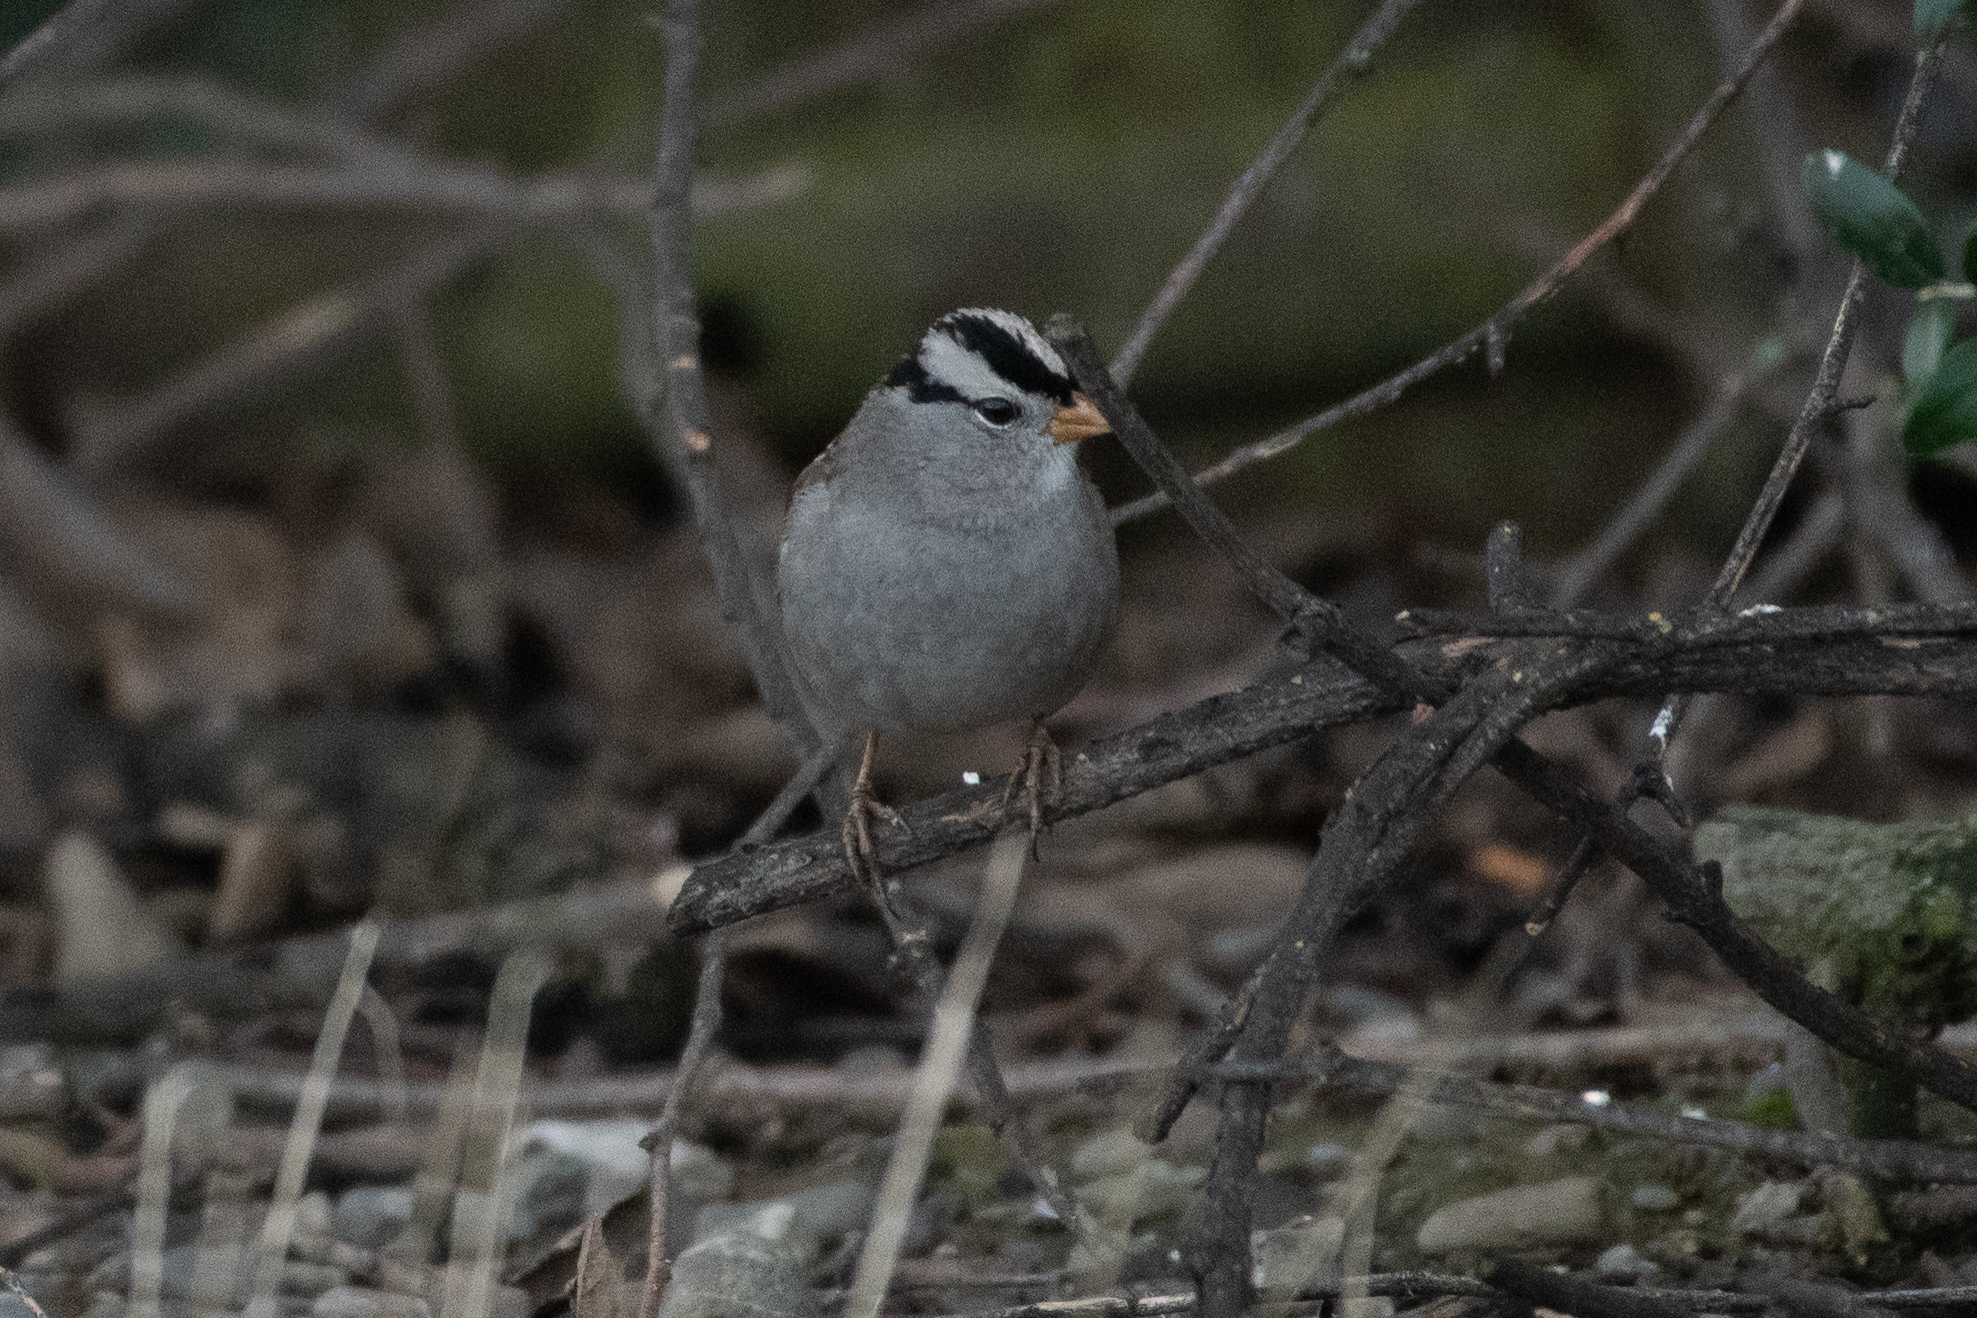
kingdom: Animalia
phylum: Chordata
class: Aves
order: Passeriformes
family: Passerellidae
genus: Zonotrichia
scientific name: Zonotrichia leucophrys
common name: White-crowned sparrow
